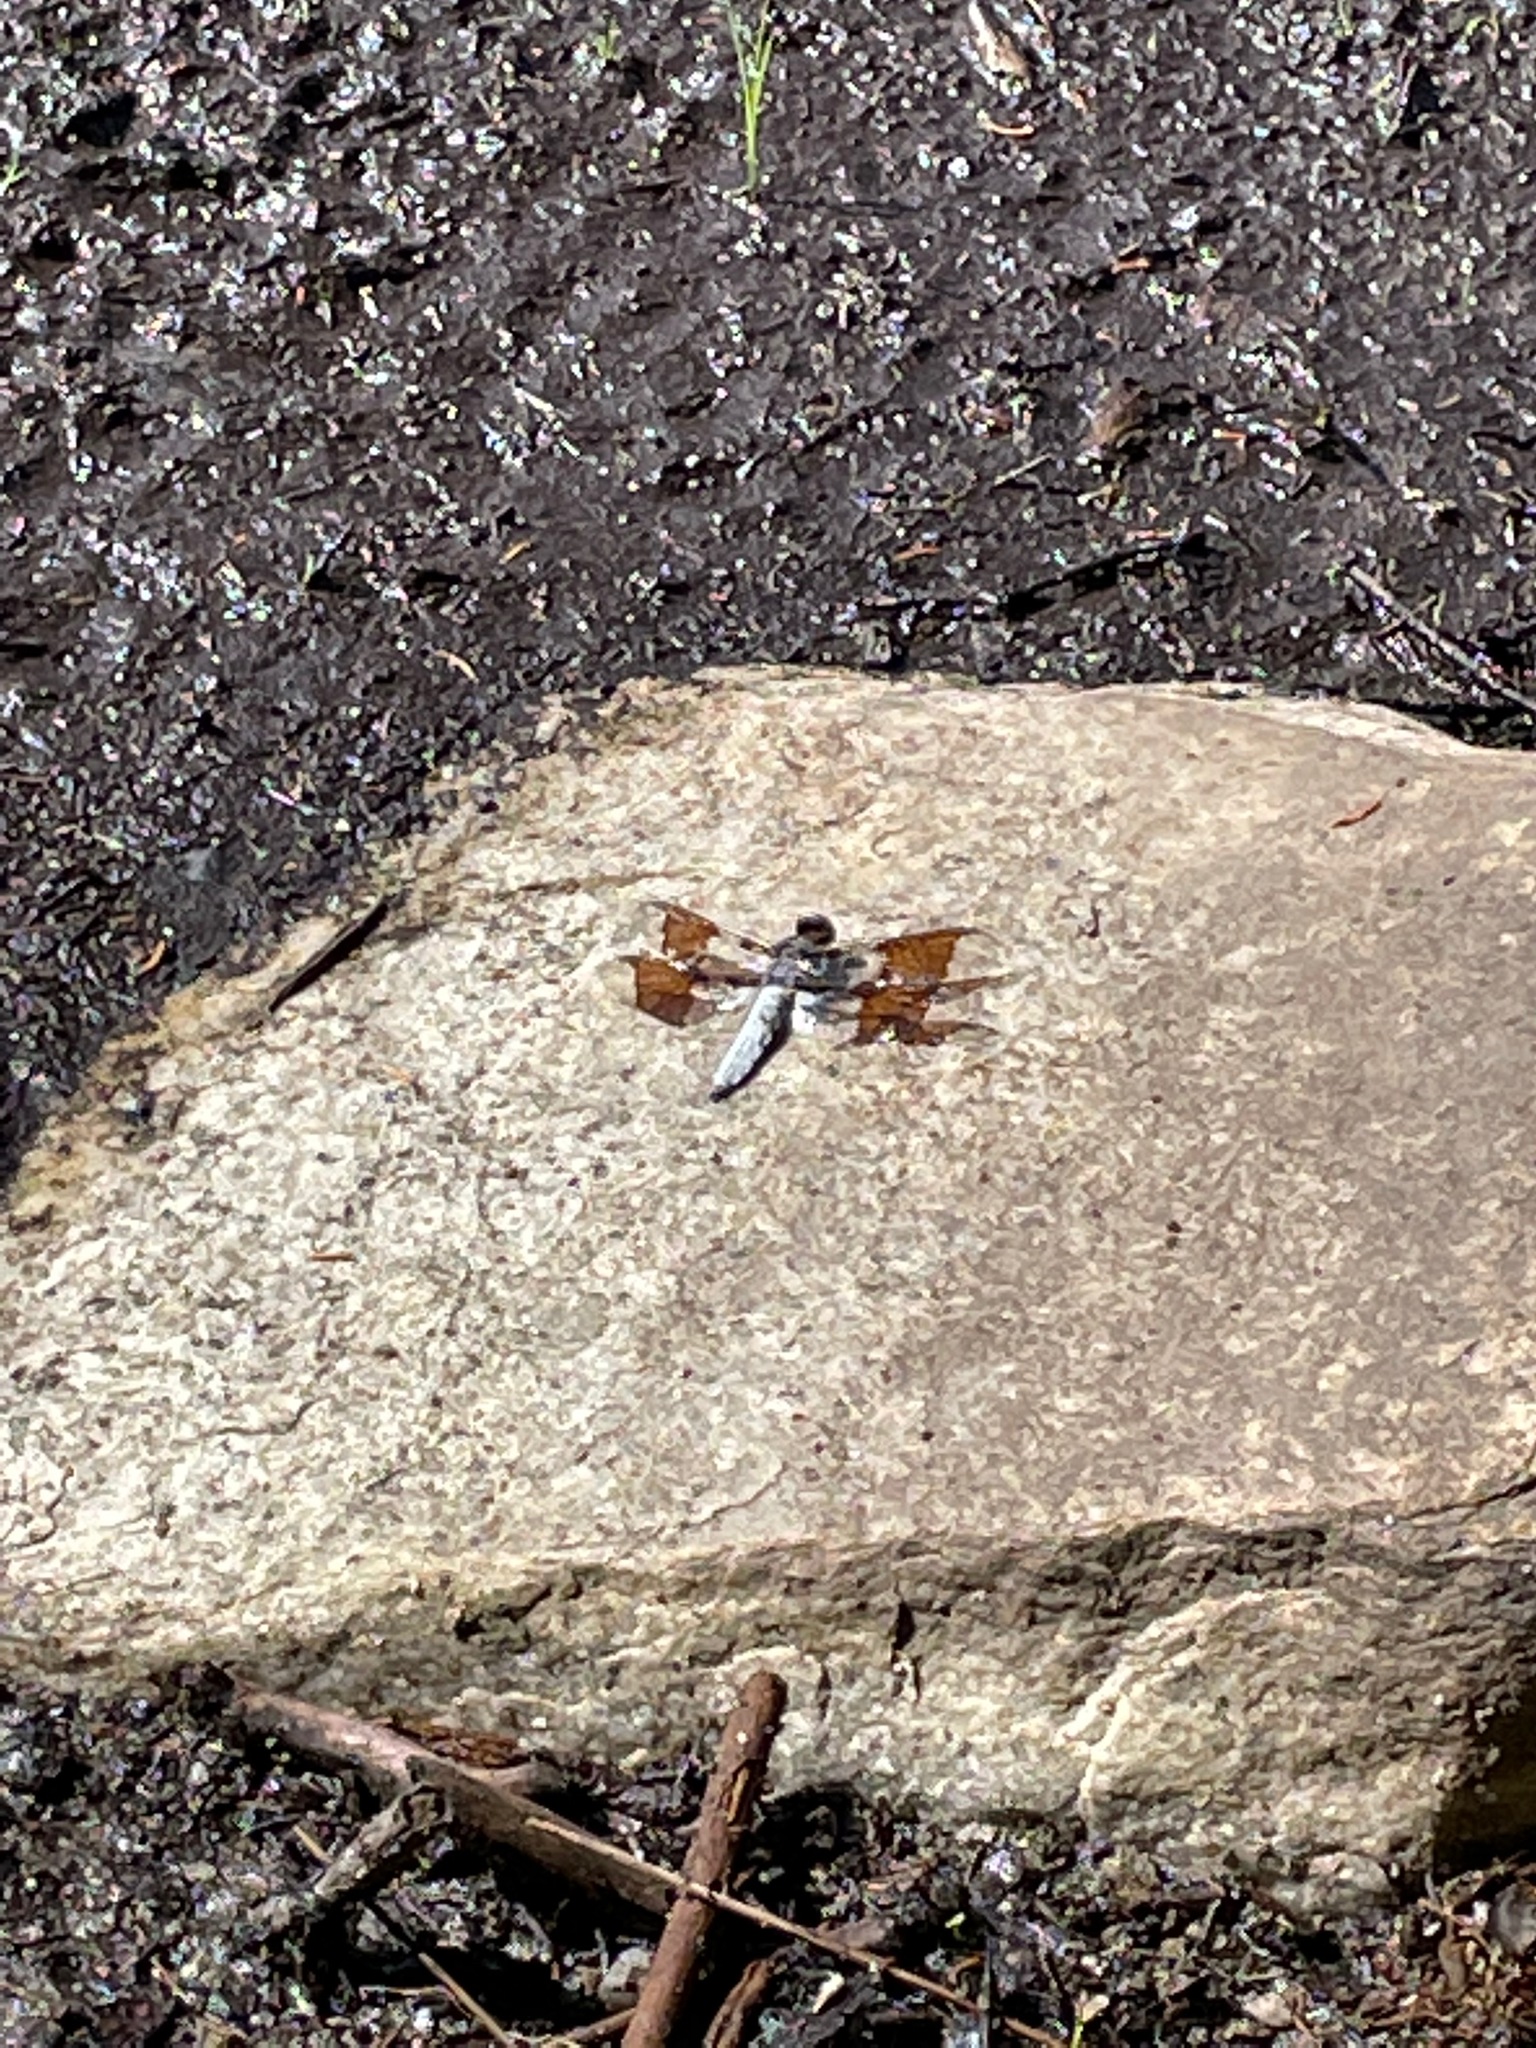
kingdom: Animalia
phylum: Arthropoda
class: Insecta
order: Odonata
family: Libellulidae
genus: Plathemis
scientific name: Plathemis lydia
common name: Common whitetail
